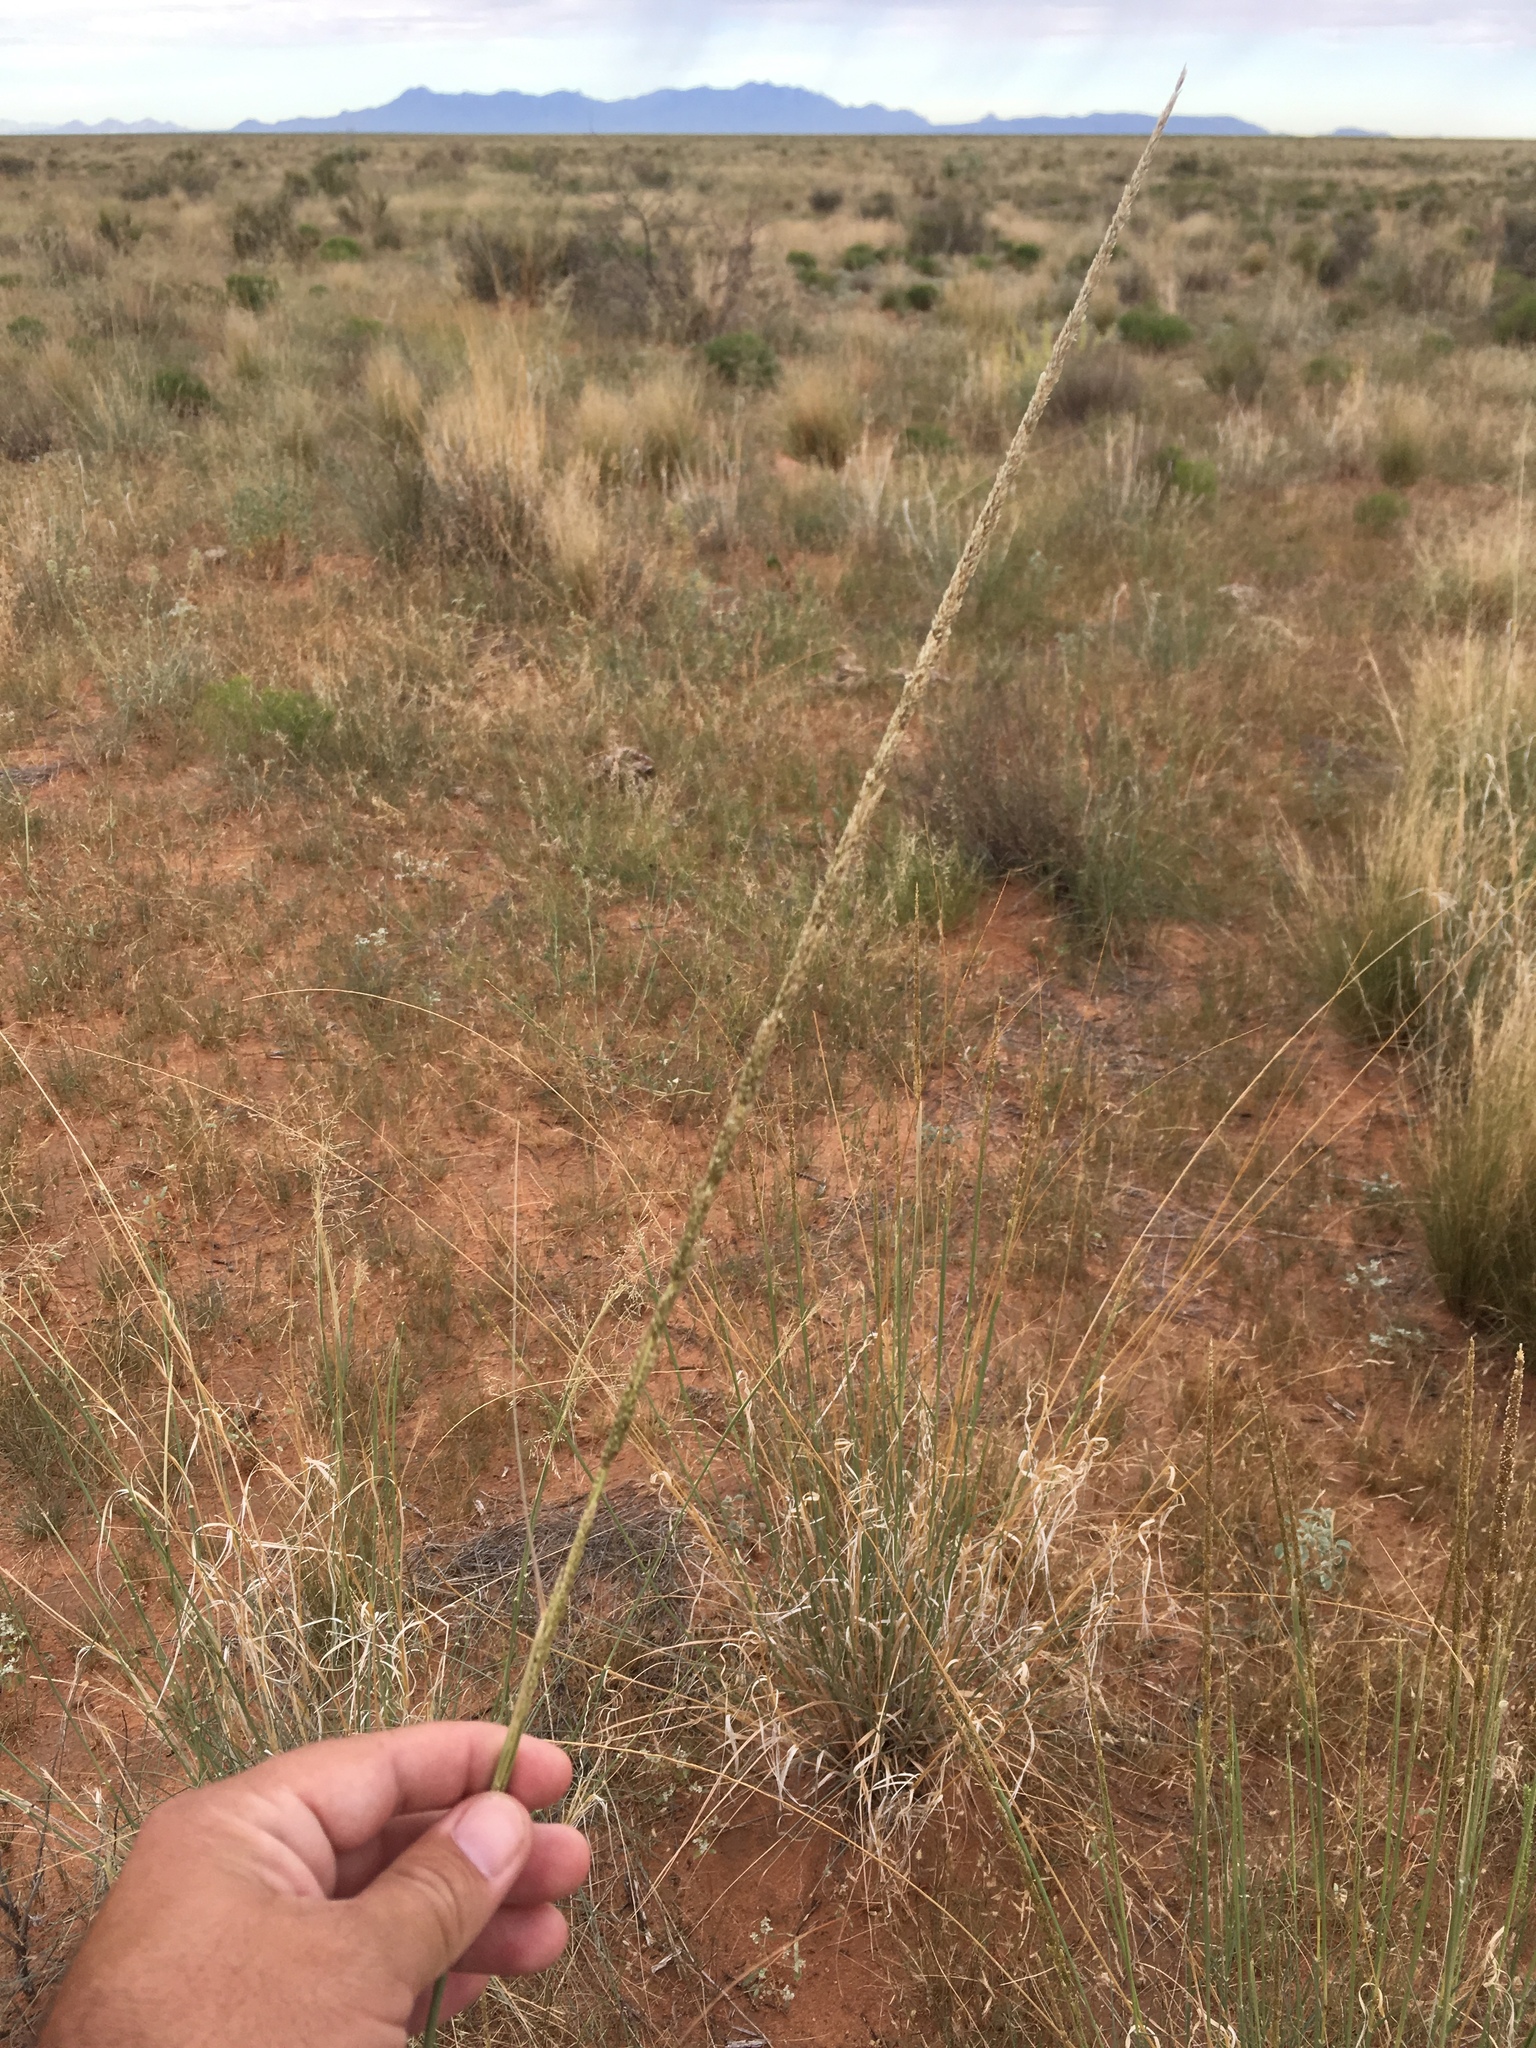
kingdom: Plantae
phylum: Tracheophyta
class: Liliopsida
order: Poales
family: Poaceae
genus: Sporobolus
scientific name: Sporobolus contractus
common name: Spike dropseed
